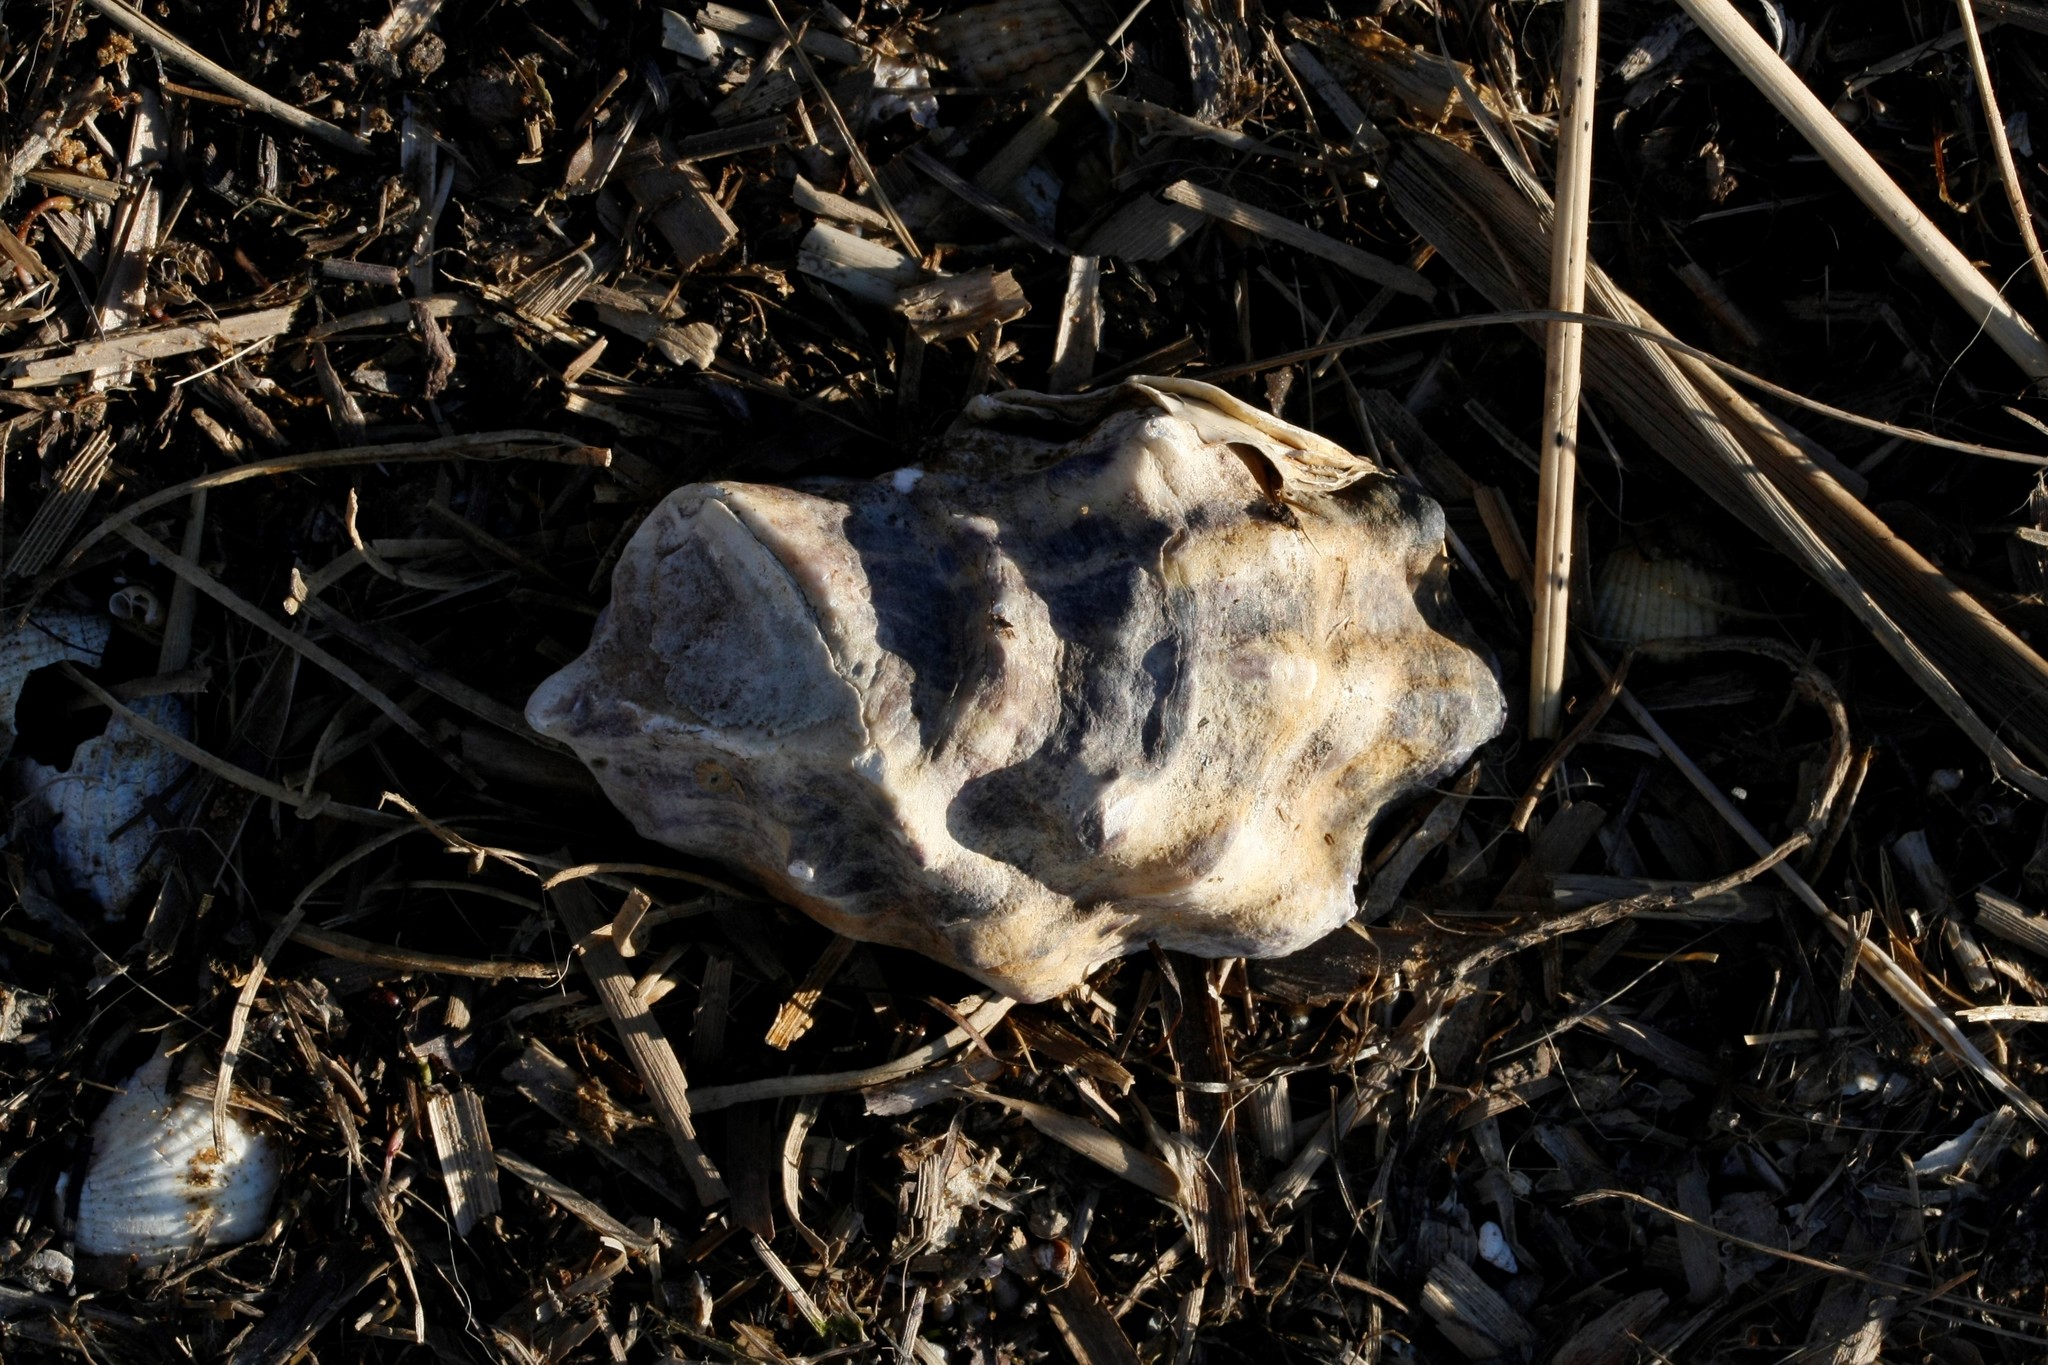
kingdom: Animalia
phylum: Mollusca
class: Bivalvia
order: Ostreida
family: Ostreidae
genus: Magallana
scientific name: Magallana gigas
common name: Pacific oyster
